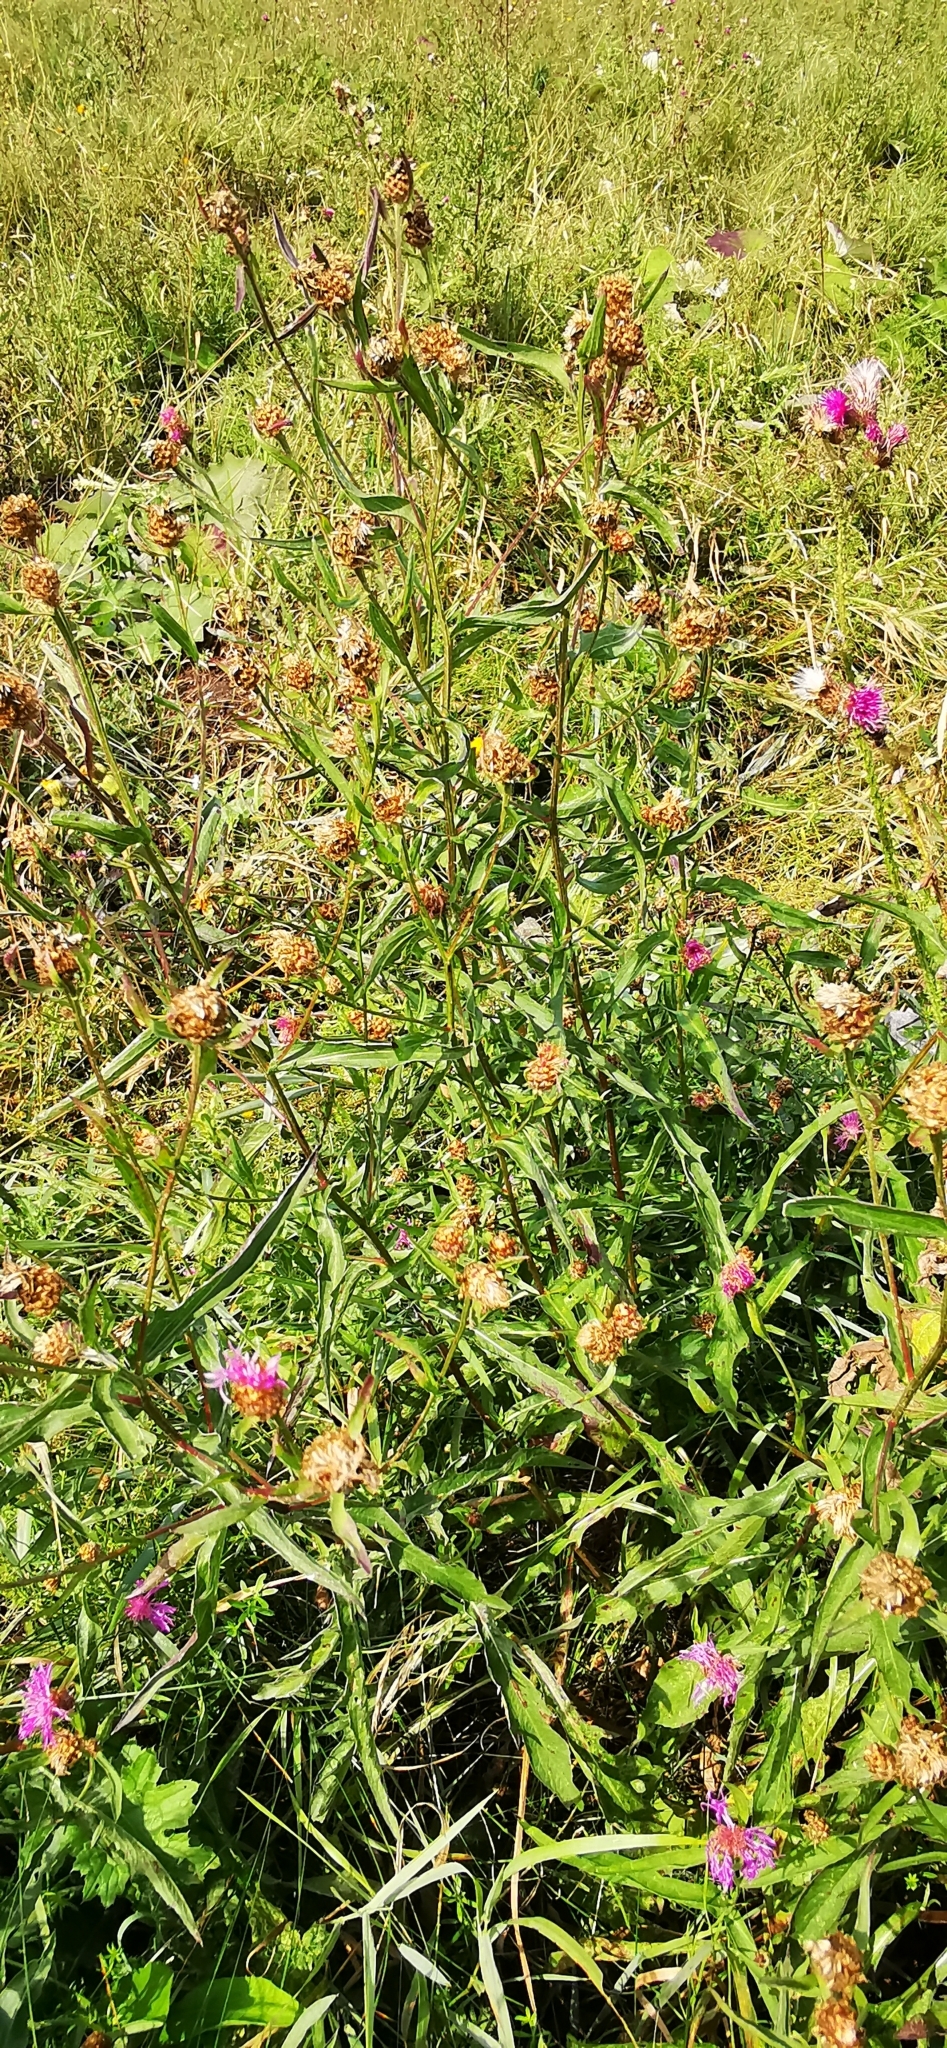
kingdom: Plantae
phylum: Tracheophyta
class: Magnoliopsida
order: Asterales
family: Asteraceae
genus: Centaurea
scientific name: Centaurea jacea
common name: Brown knapweed
